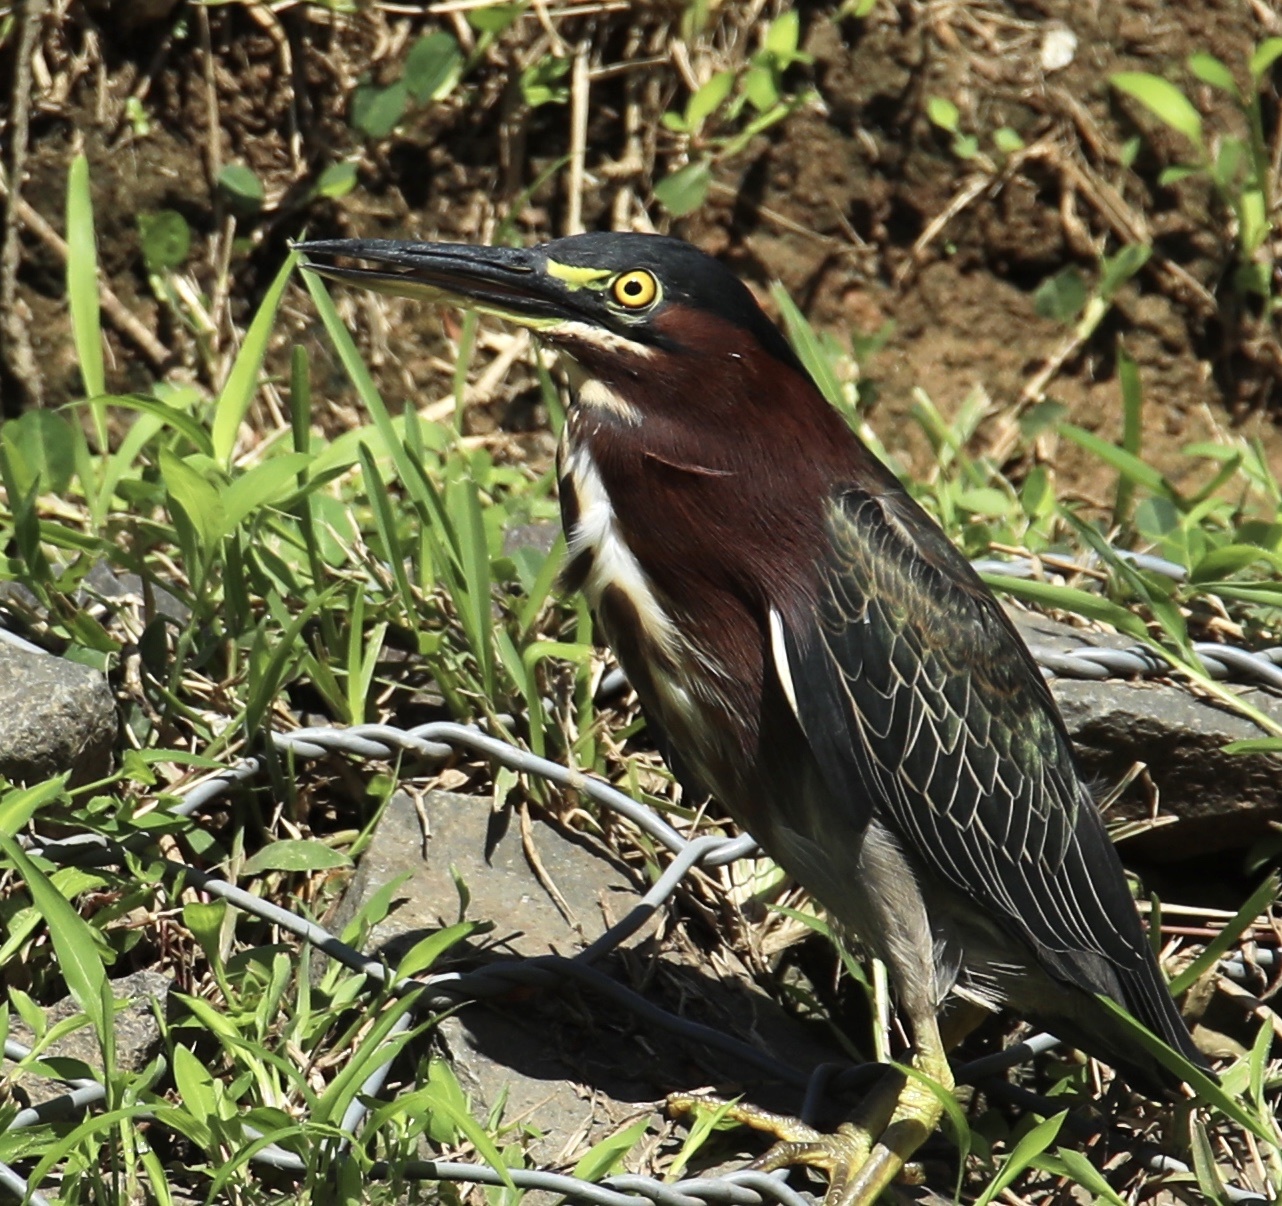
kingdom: Animalia
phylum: Chordata
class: Aves
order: Pelecaniformes
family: Ardeidae
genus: Butorides
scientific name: Butorides virescens
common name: Green heron
